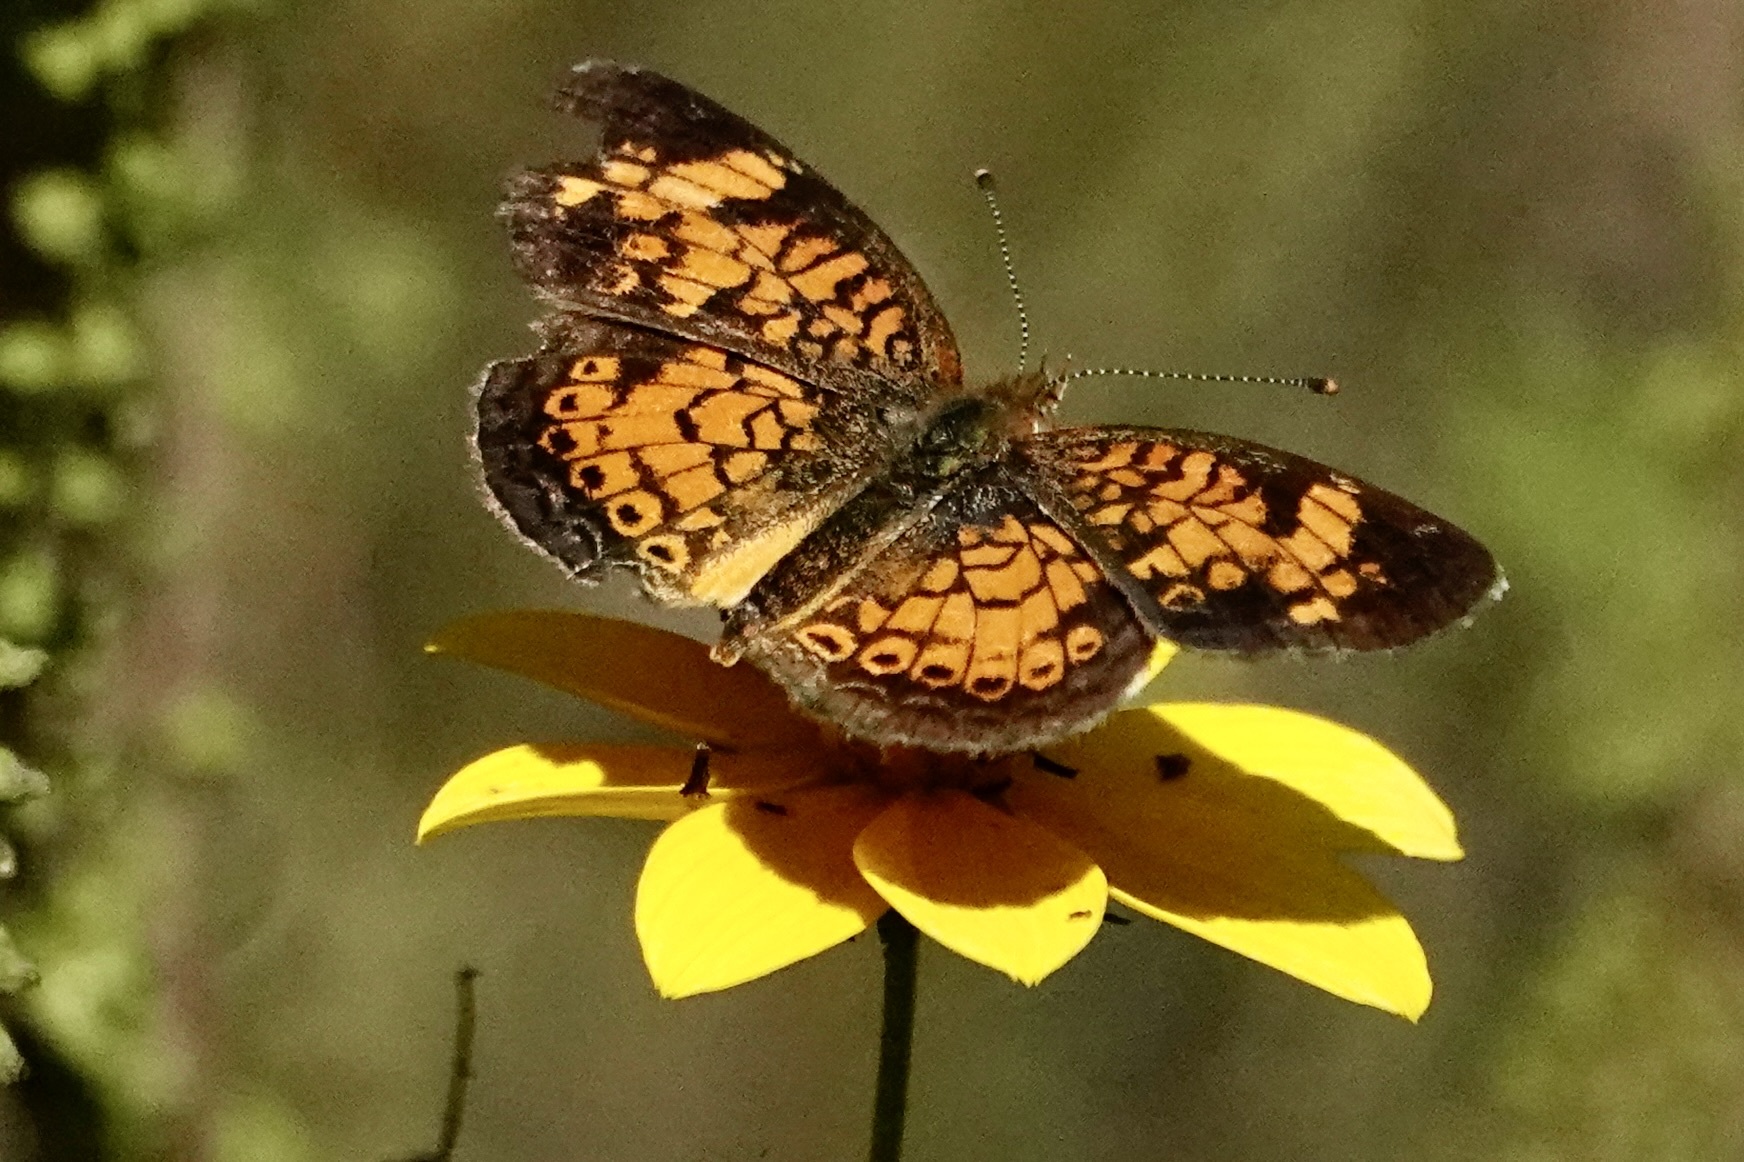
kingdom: Animalia
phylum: Arthropoda
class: Insecta
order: Lepidoptera
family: Nymphalidae
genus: Phyciodes
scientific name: Phyciodes tharos
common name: Pearl crescent
